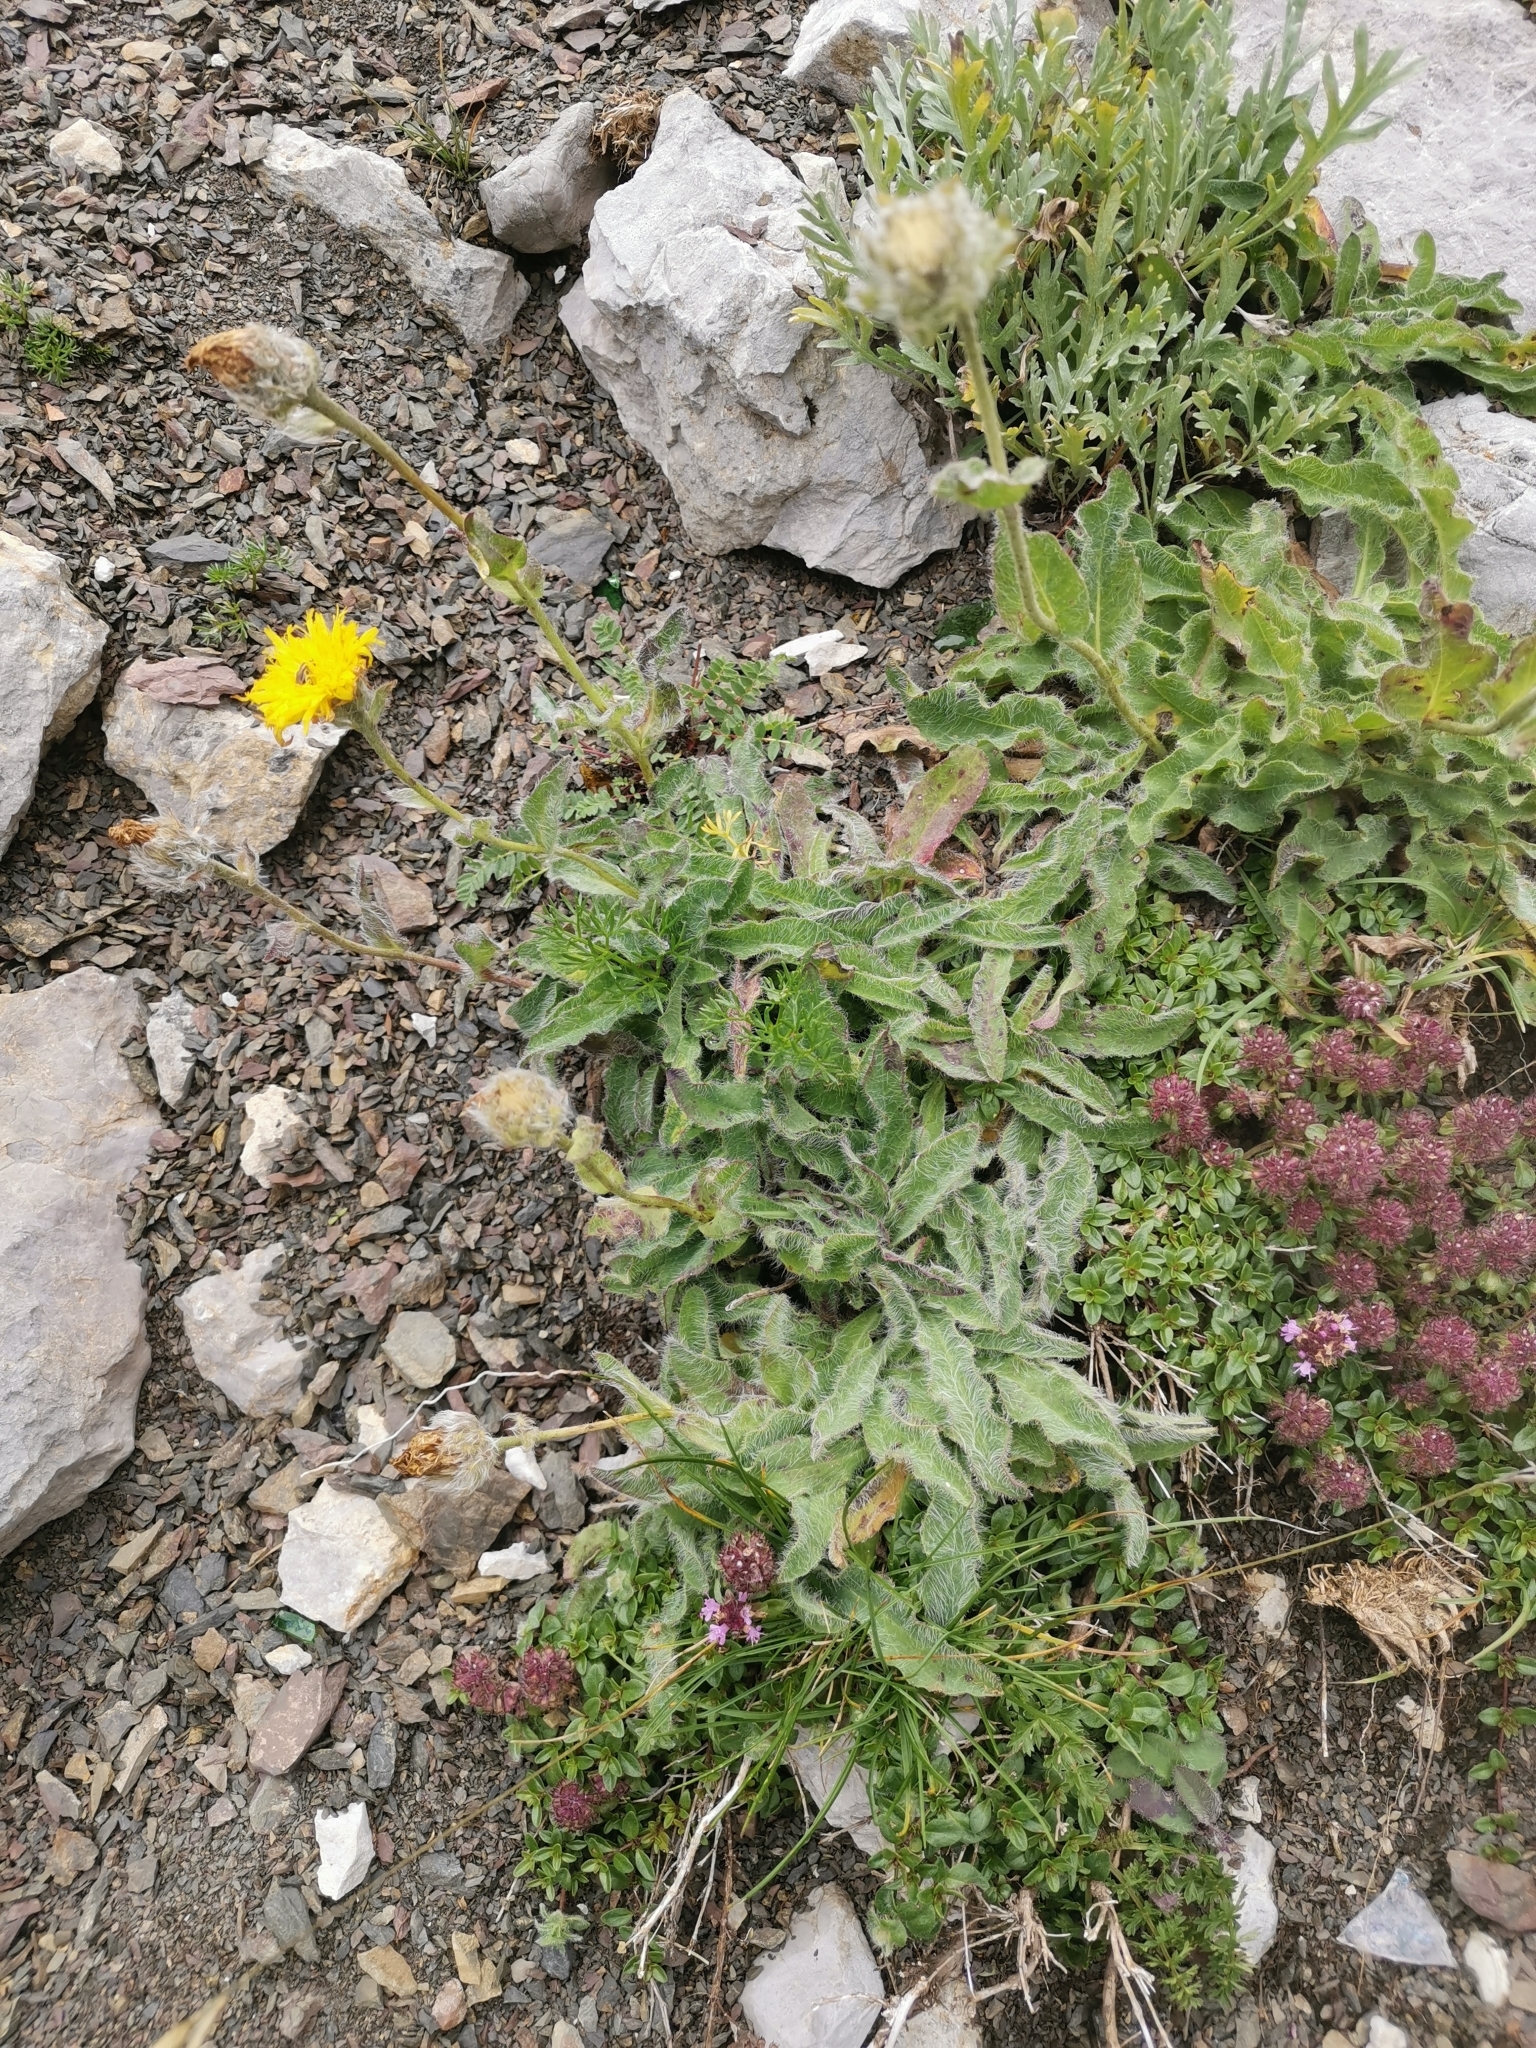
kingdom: Plantae
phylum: Tracheophyta
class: Magnoliopsida
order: Asterales
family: Asteraceae
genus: Hieracium
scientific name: Hieracium villosum
